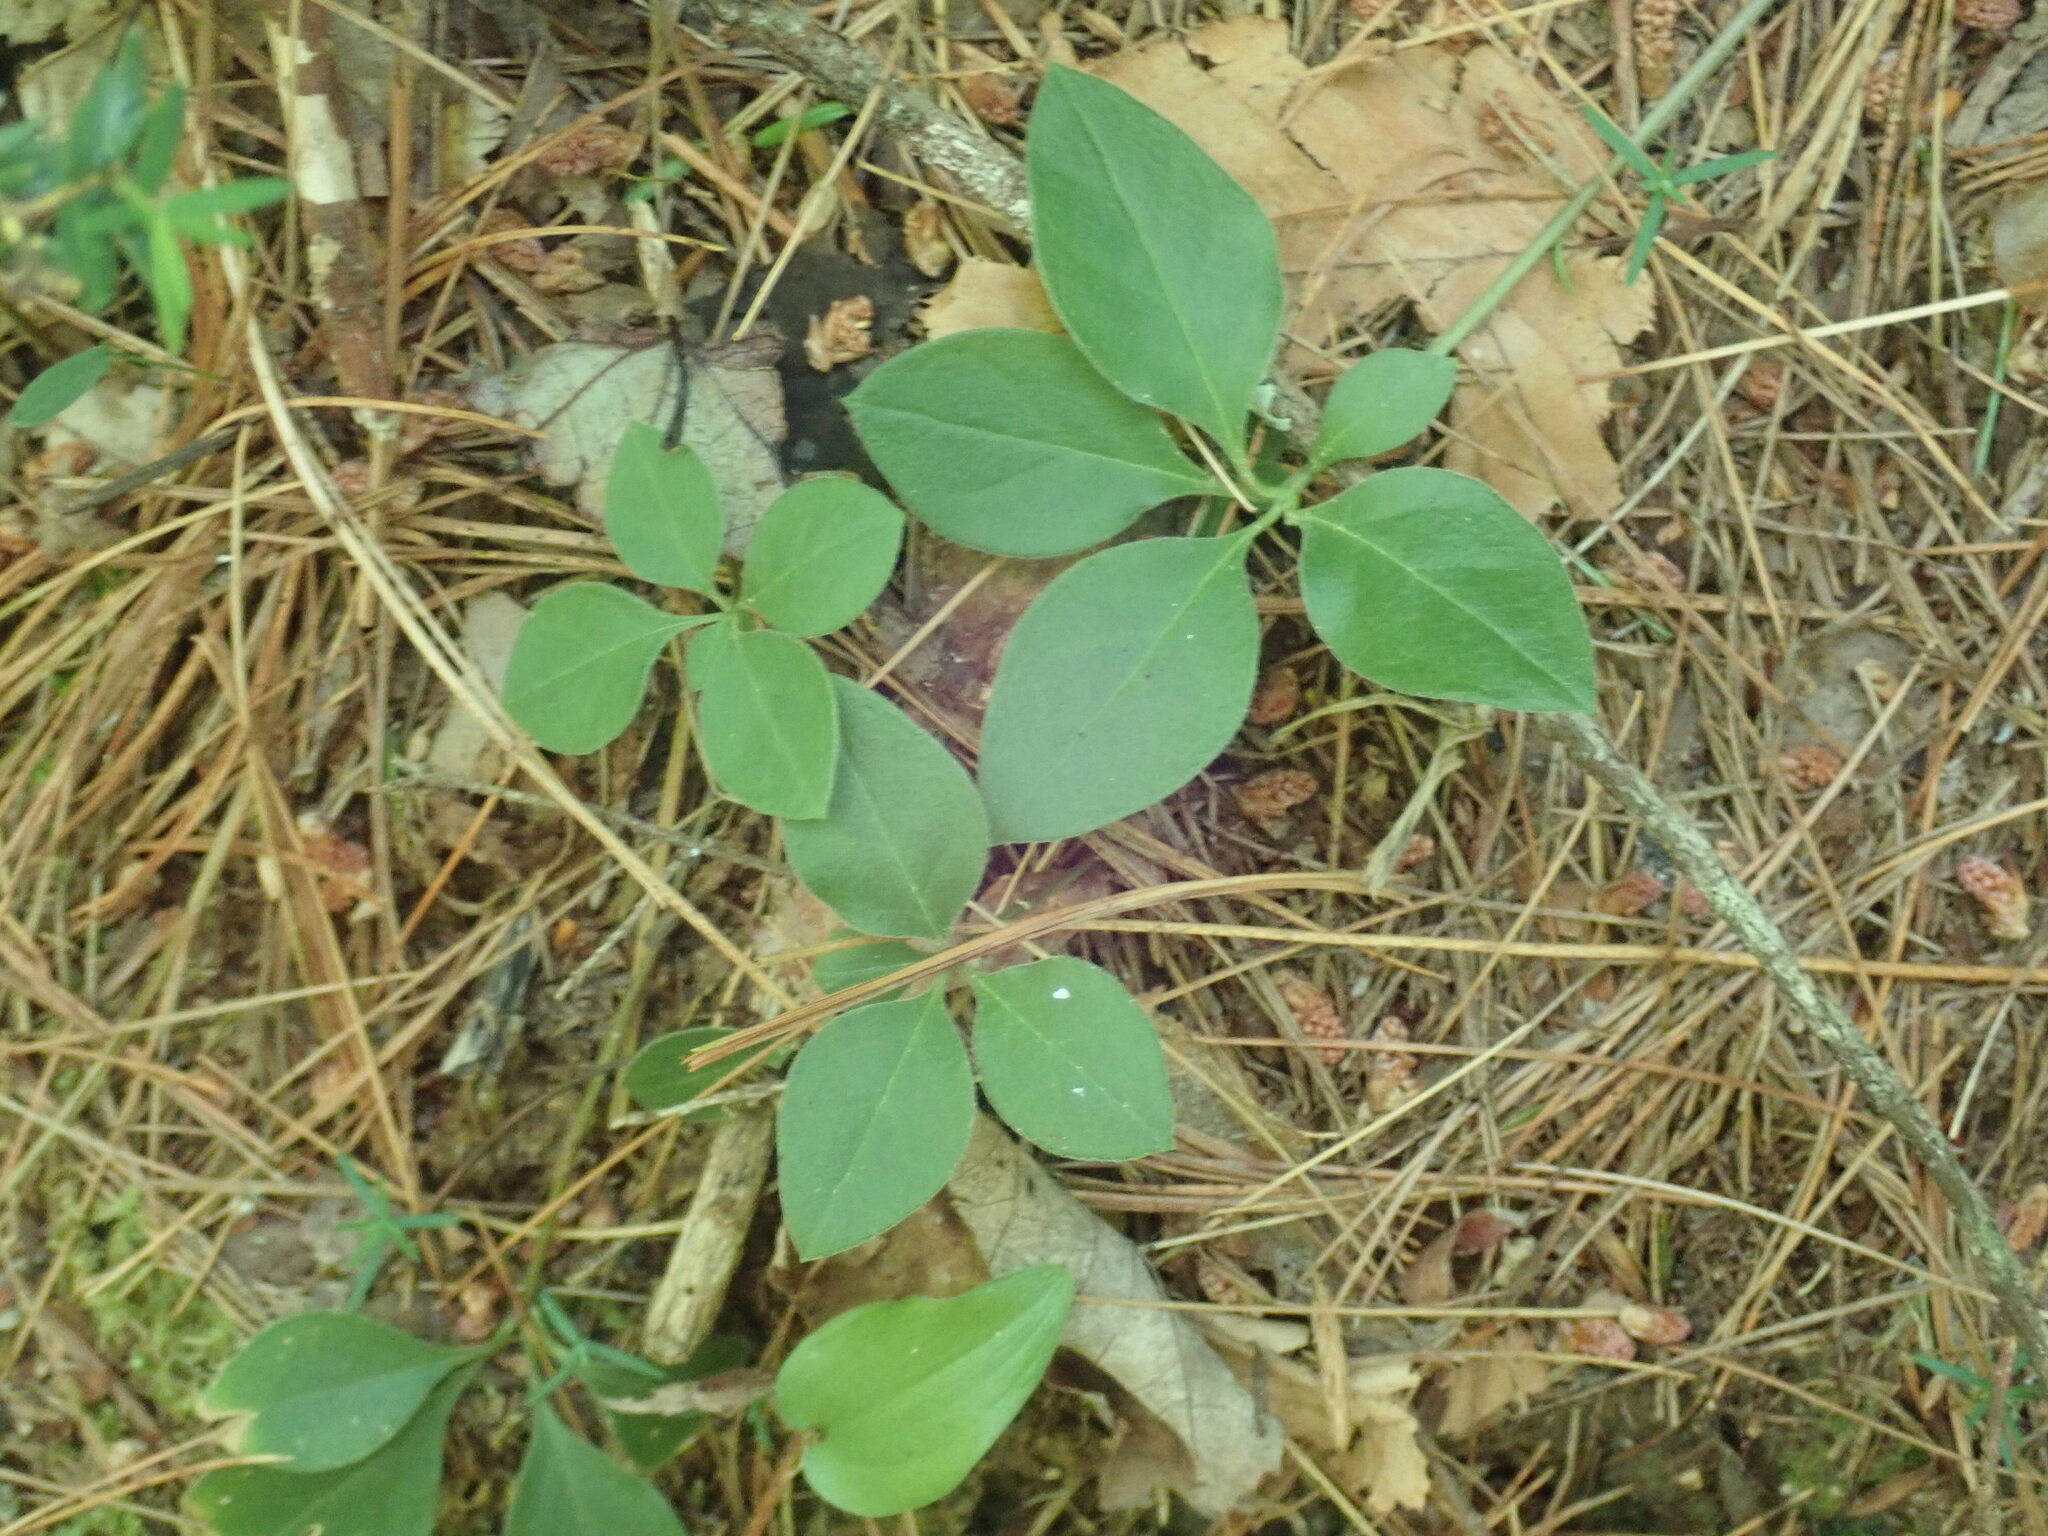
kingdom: Plantae
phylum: Tracheophyta
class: Magnoliopsida
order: Fabales
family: Polygalaceae
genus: Polygaloides
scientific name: Polygaloides paucifolia
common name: Bird-on-the-wing
